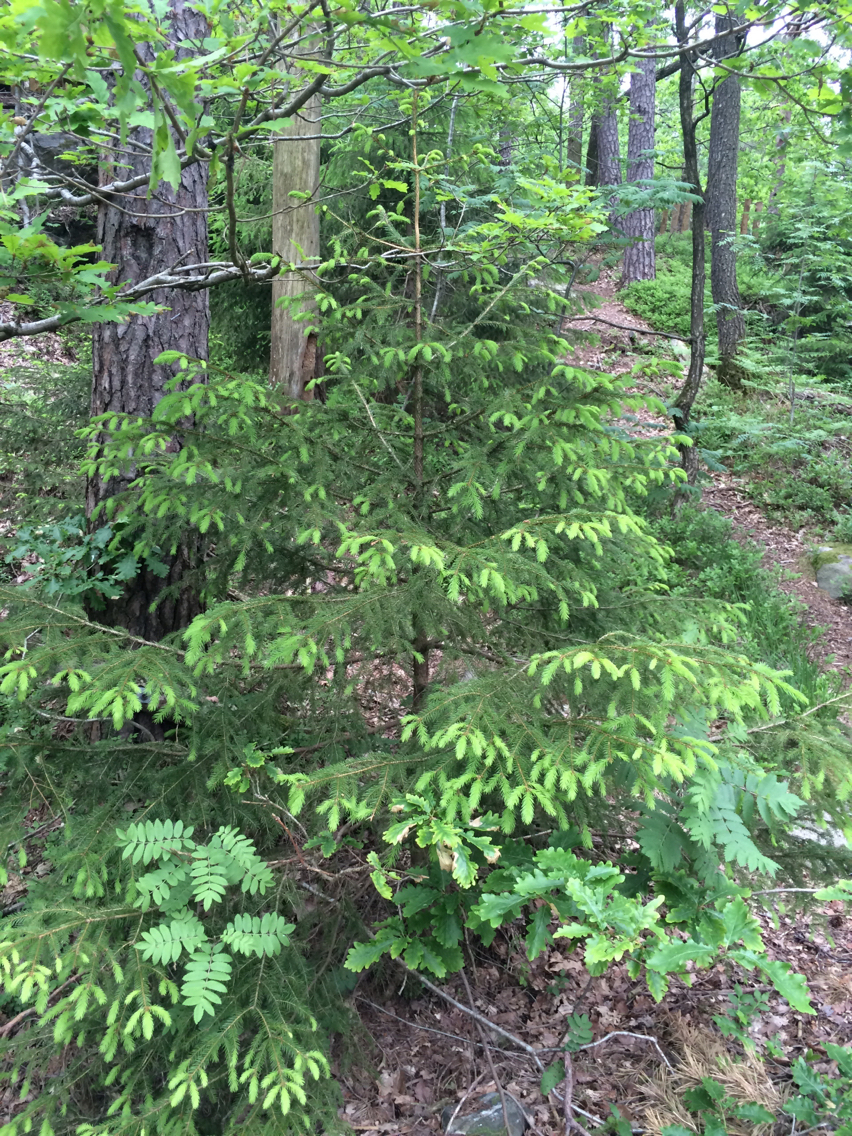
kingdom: Plantae
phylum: Tracheophyta
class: Pinopsida
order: Pinales
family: Pinaceae
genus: Picea
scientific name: Picea abies
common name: Norway spruce
